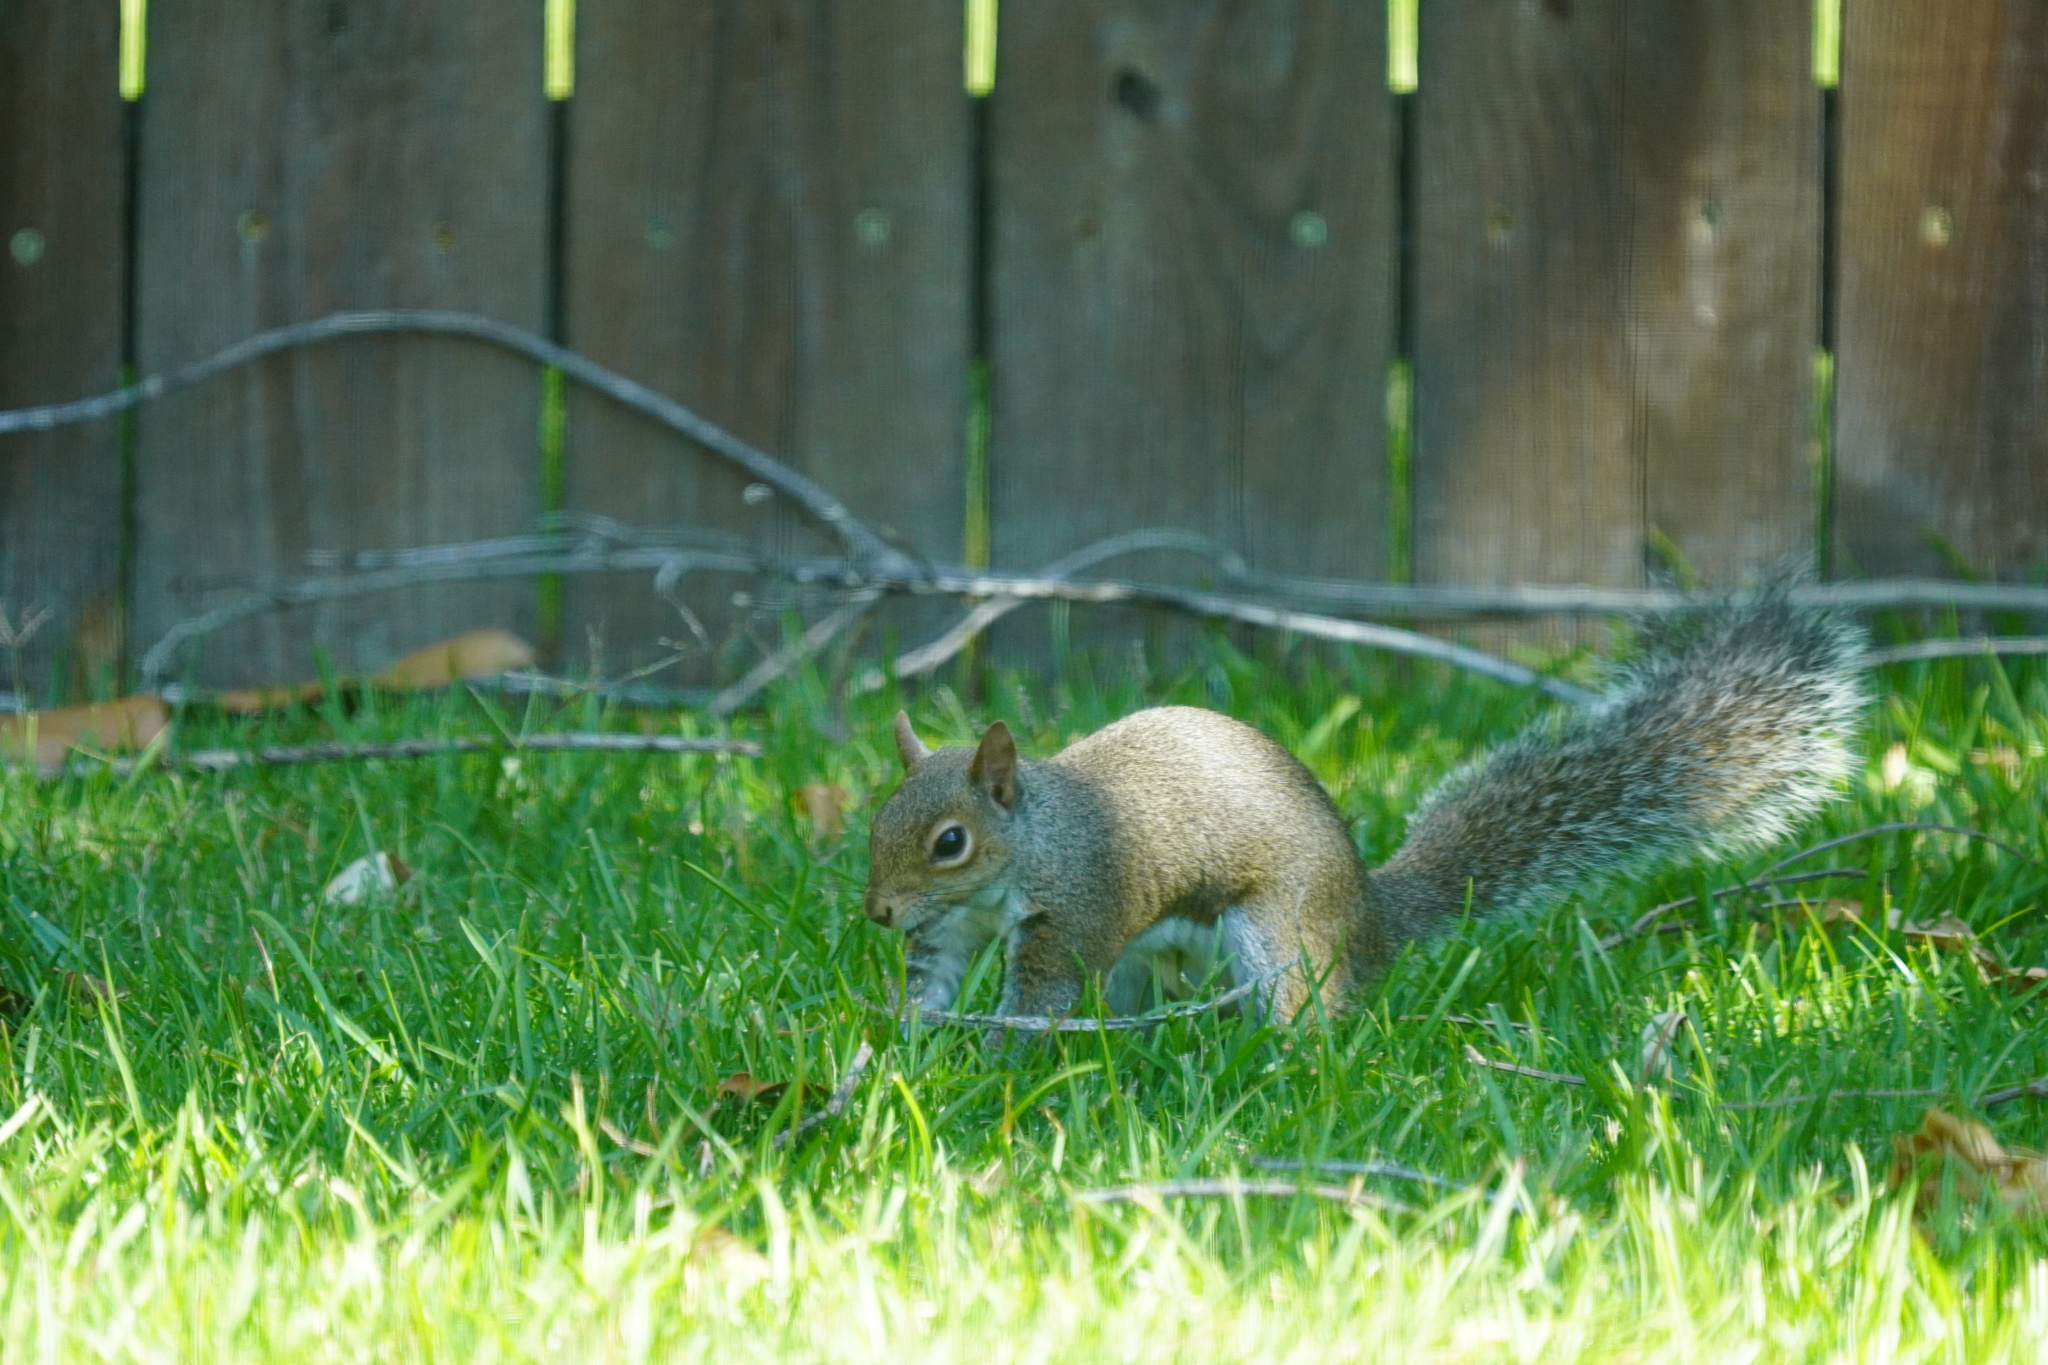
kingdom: Animalia
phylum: Chordata
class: Mammalia
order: Rodentia
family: Sciuridae
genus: Sciurus
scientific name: Sciurus carolinensis
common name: Eastern gray squirrel
